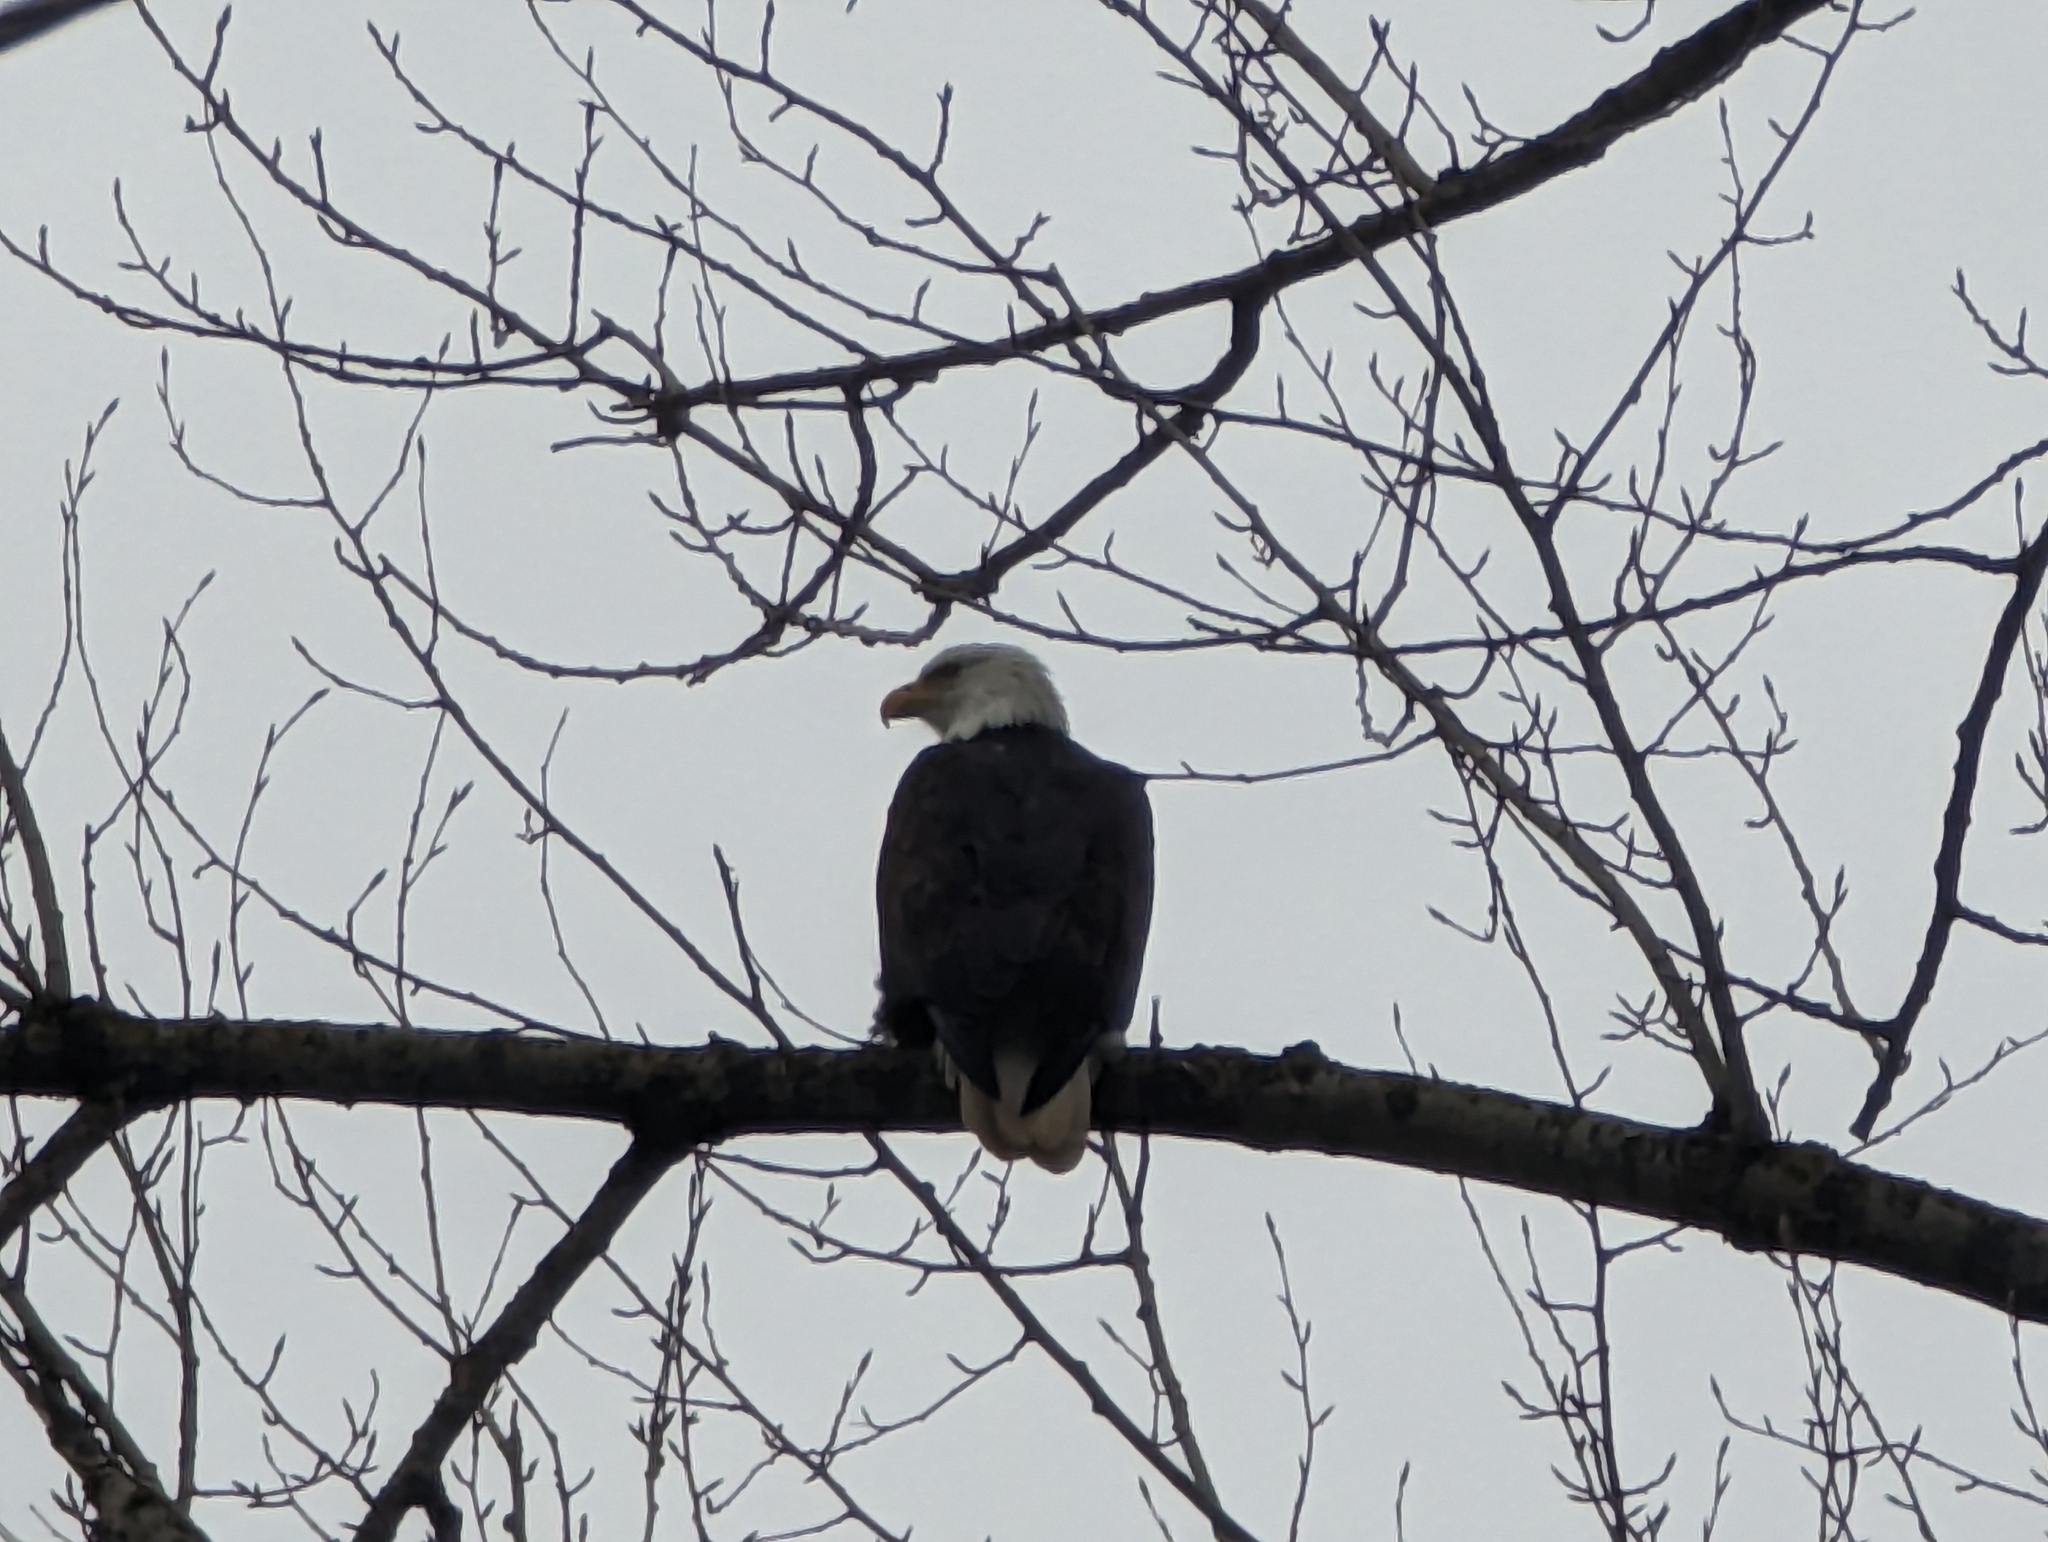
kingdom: Animalia
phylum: Chordata
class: Aves
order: Accipitriformes
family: Accipitridae
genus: Haliaeetus
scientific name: Haliaeetus leucocephalus
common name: Bald eagle
